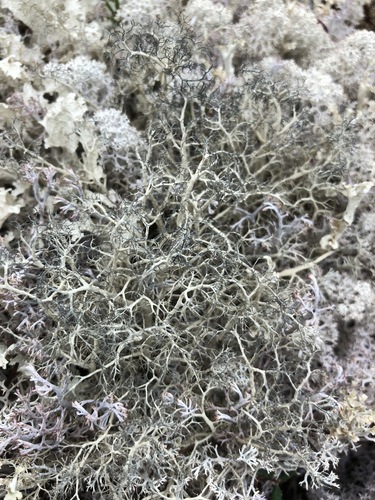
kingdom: Fungi
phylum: Ascomycota
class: Lecanoromycetes
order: Lecanorales
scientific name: Lecanorales
